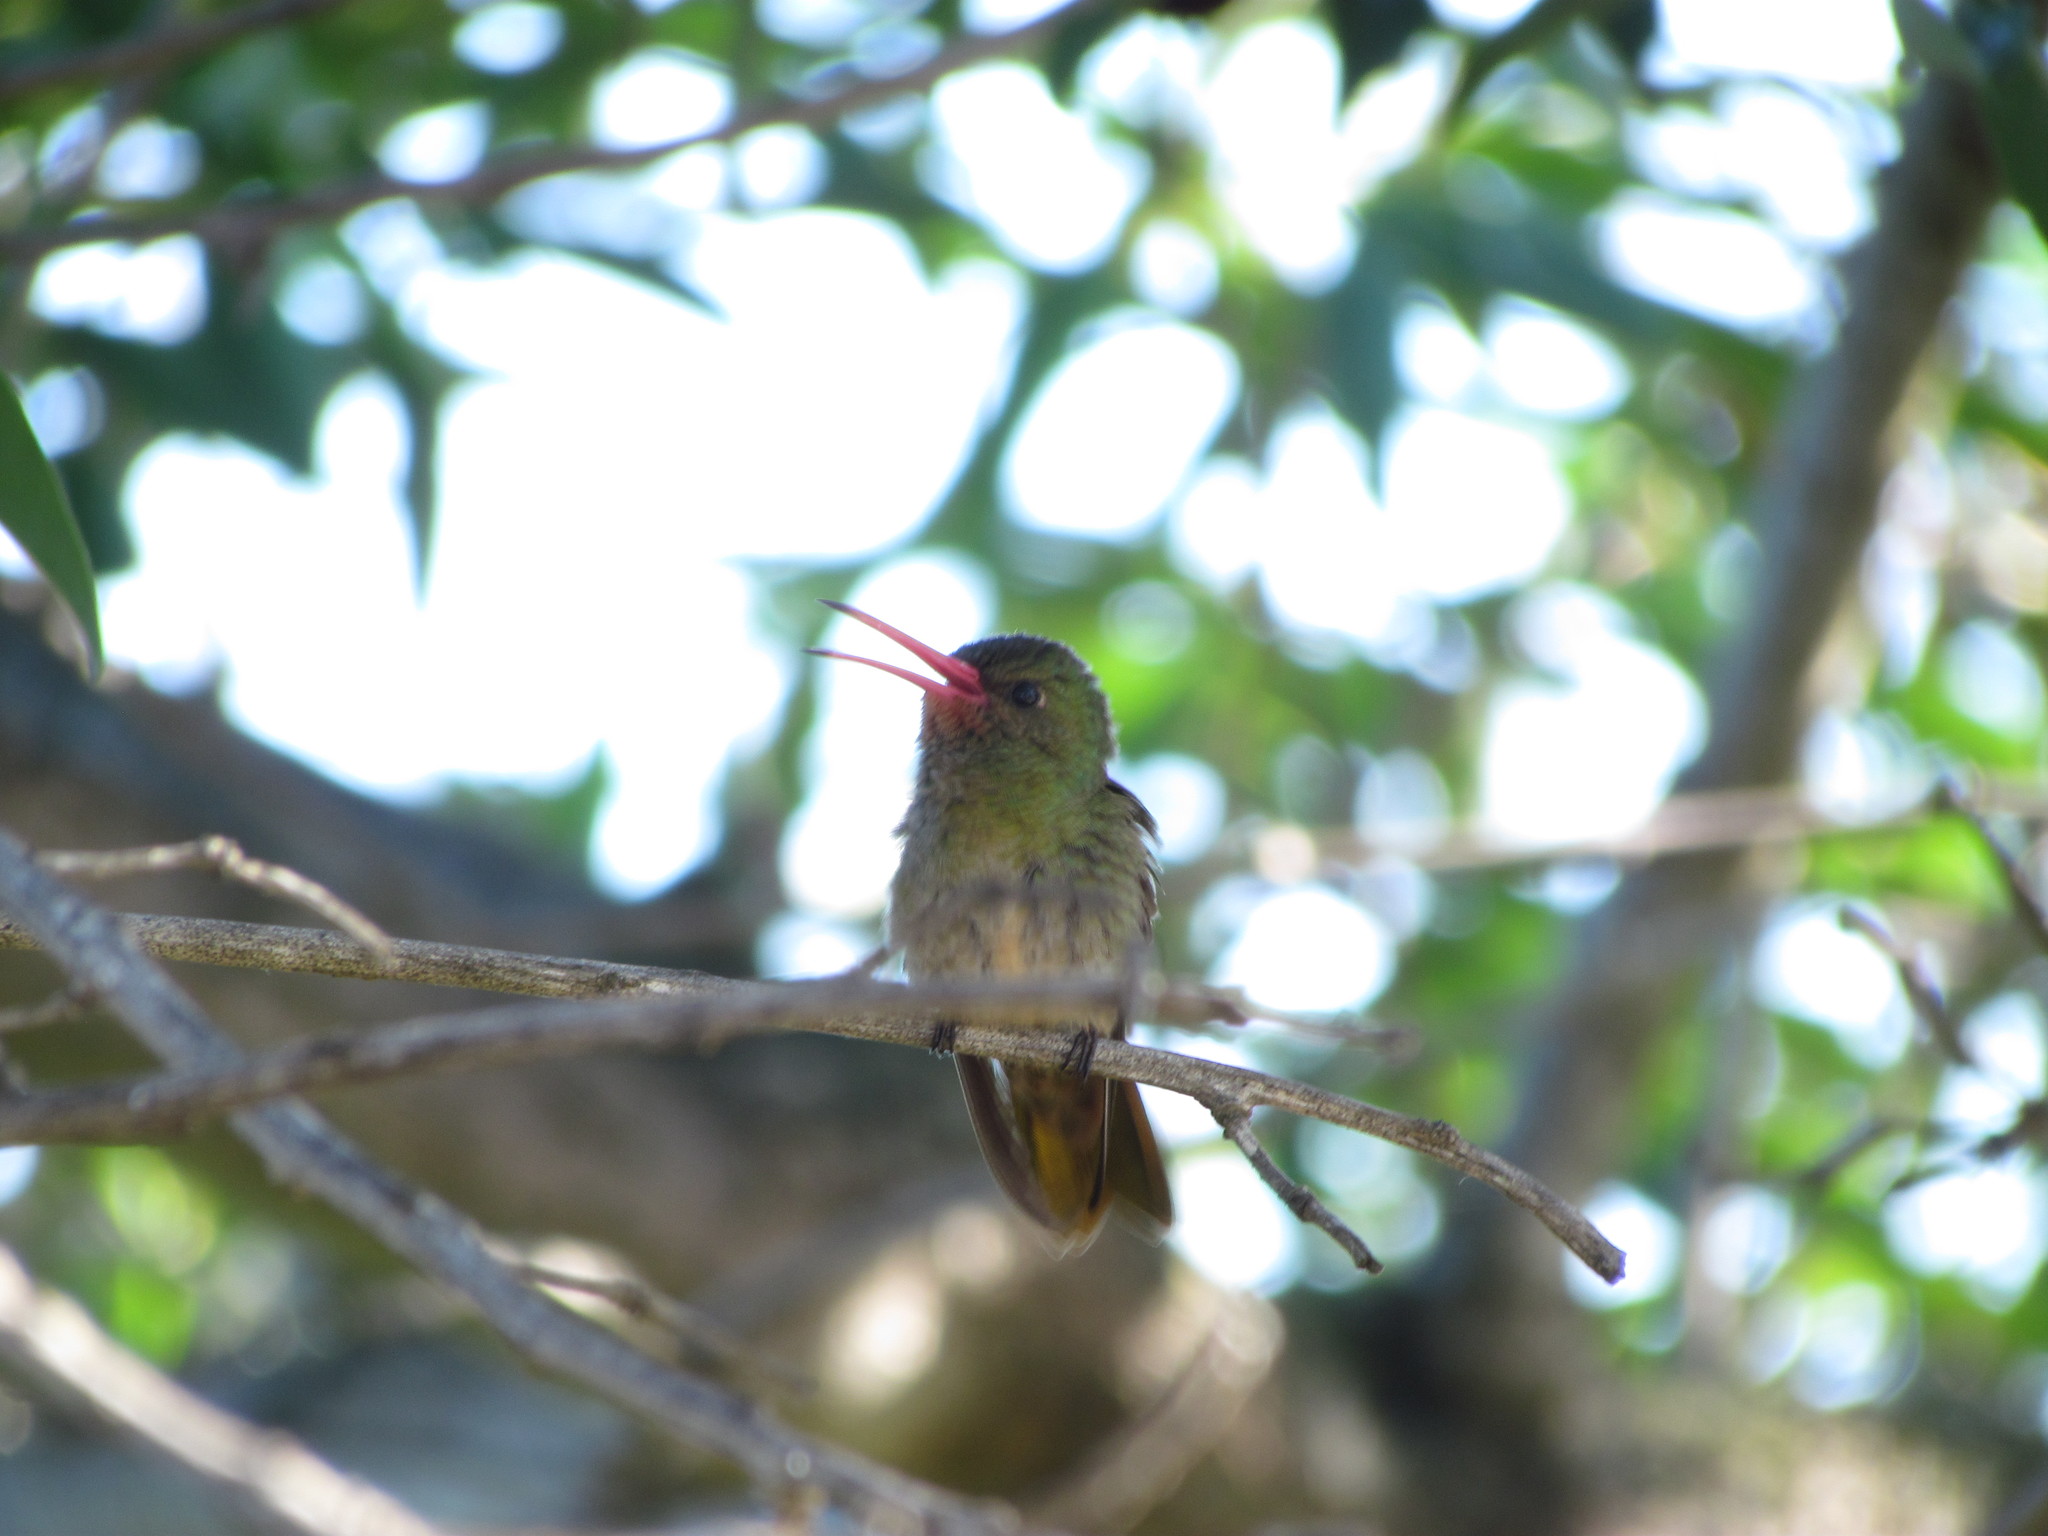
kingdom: Animalia
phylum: Chordata
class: Aves
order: Apodiformes
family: Trochilidae
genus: Hylocharis
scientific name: Hylocharis chrysura
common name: Gilded sapphire
